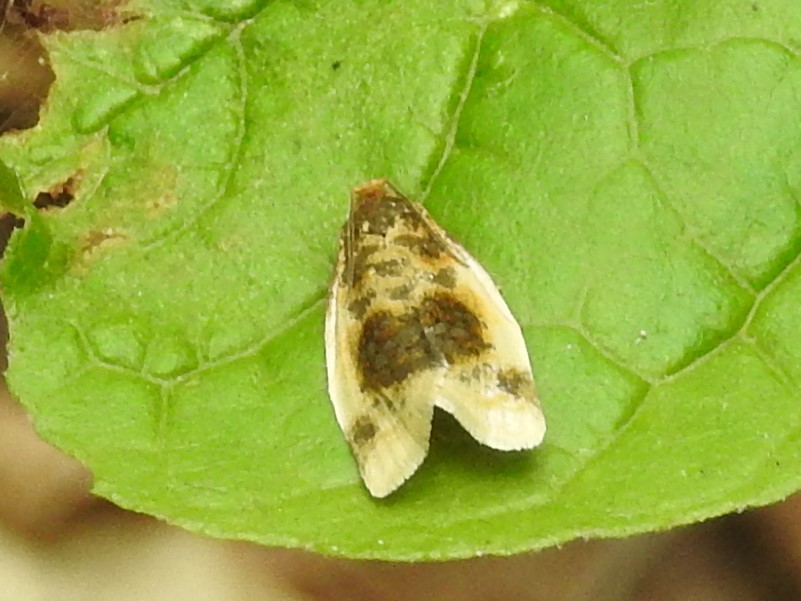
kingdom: Animalia
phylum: Arthropoda
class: Insecta
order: Lepidoptera
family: Tortricidae
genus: Clepsis
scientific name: Clepsis melaleucanus
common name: American apple tortrix
